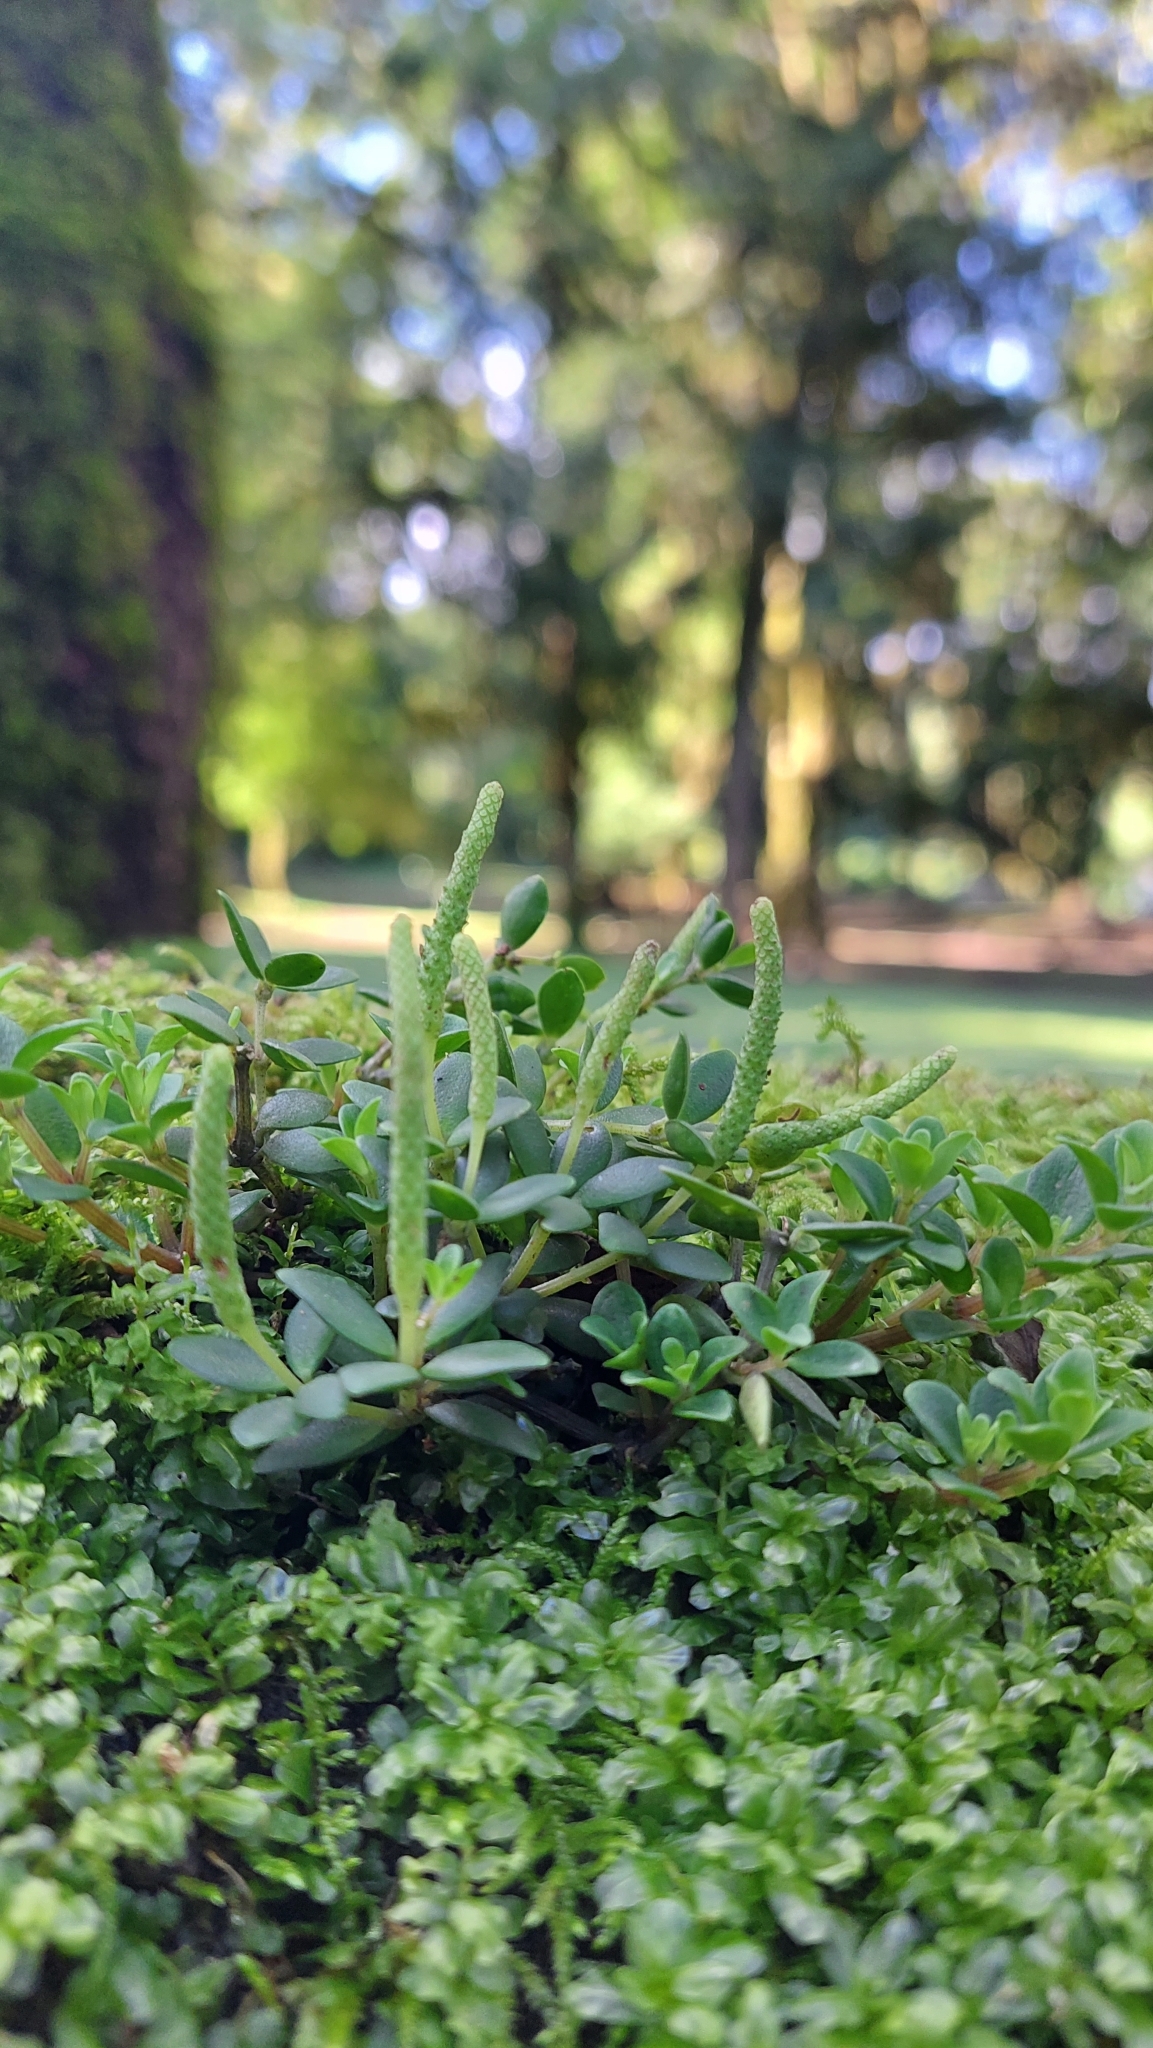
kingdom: Plantae
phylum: Tracheophyta
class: Magnoliopsida
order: Piperales
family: Piperaceae
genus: Peperomia
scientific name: Peperomia tetraphylla
